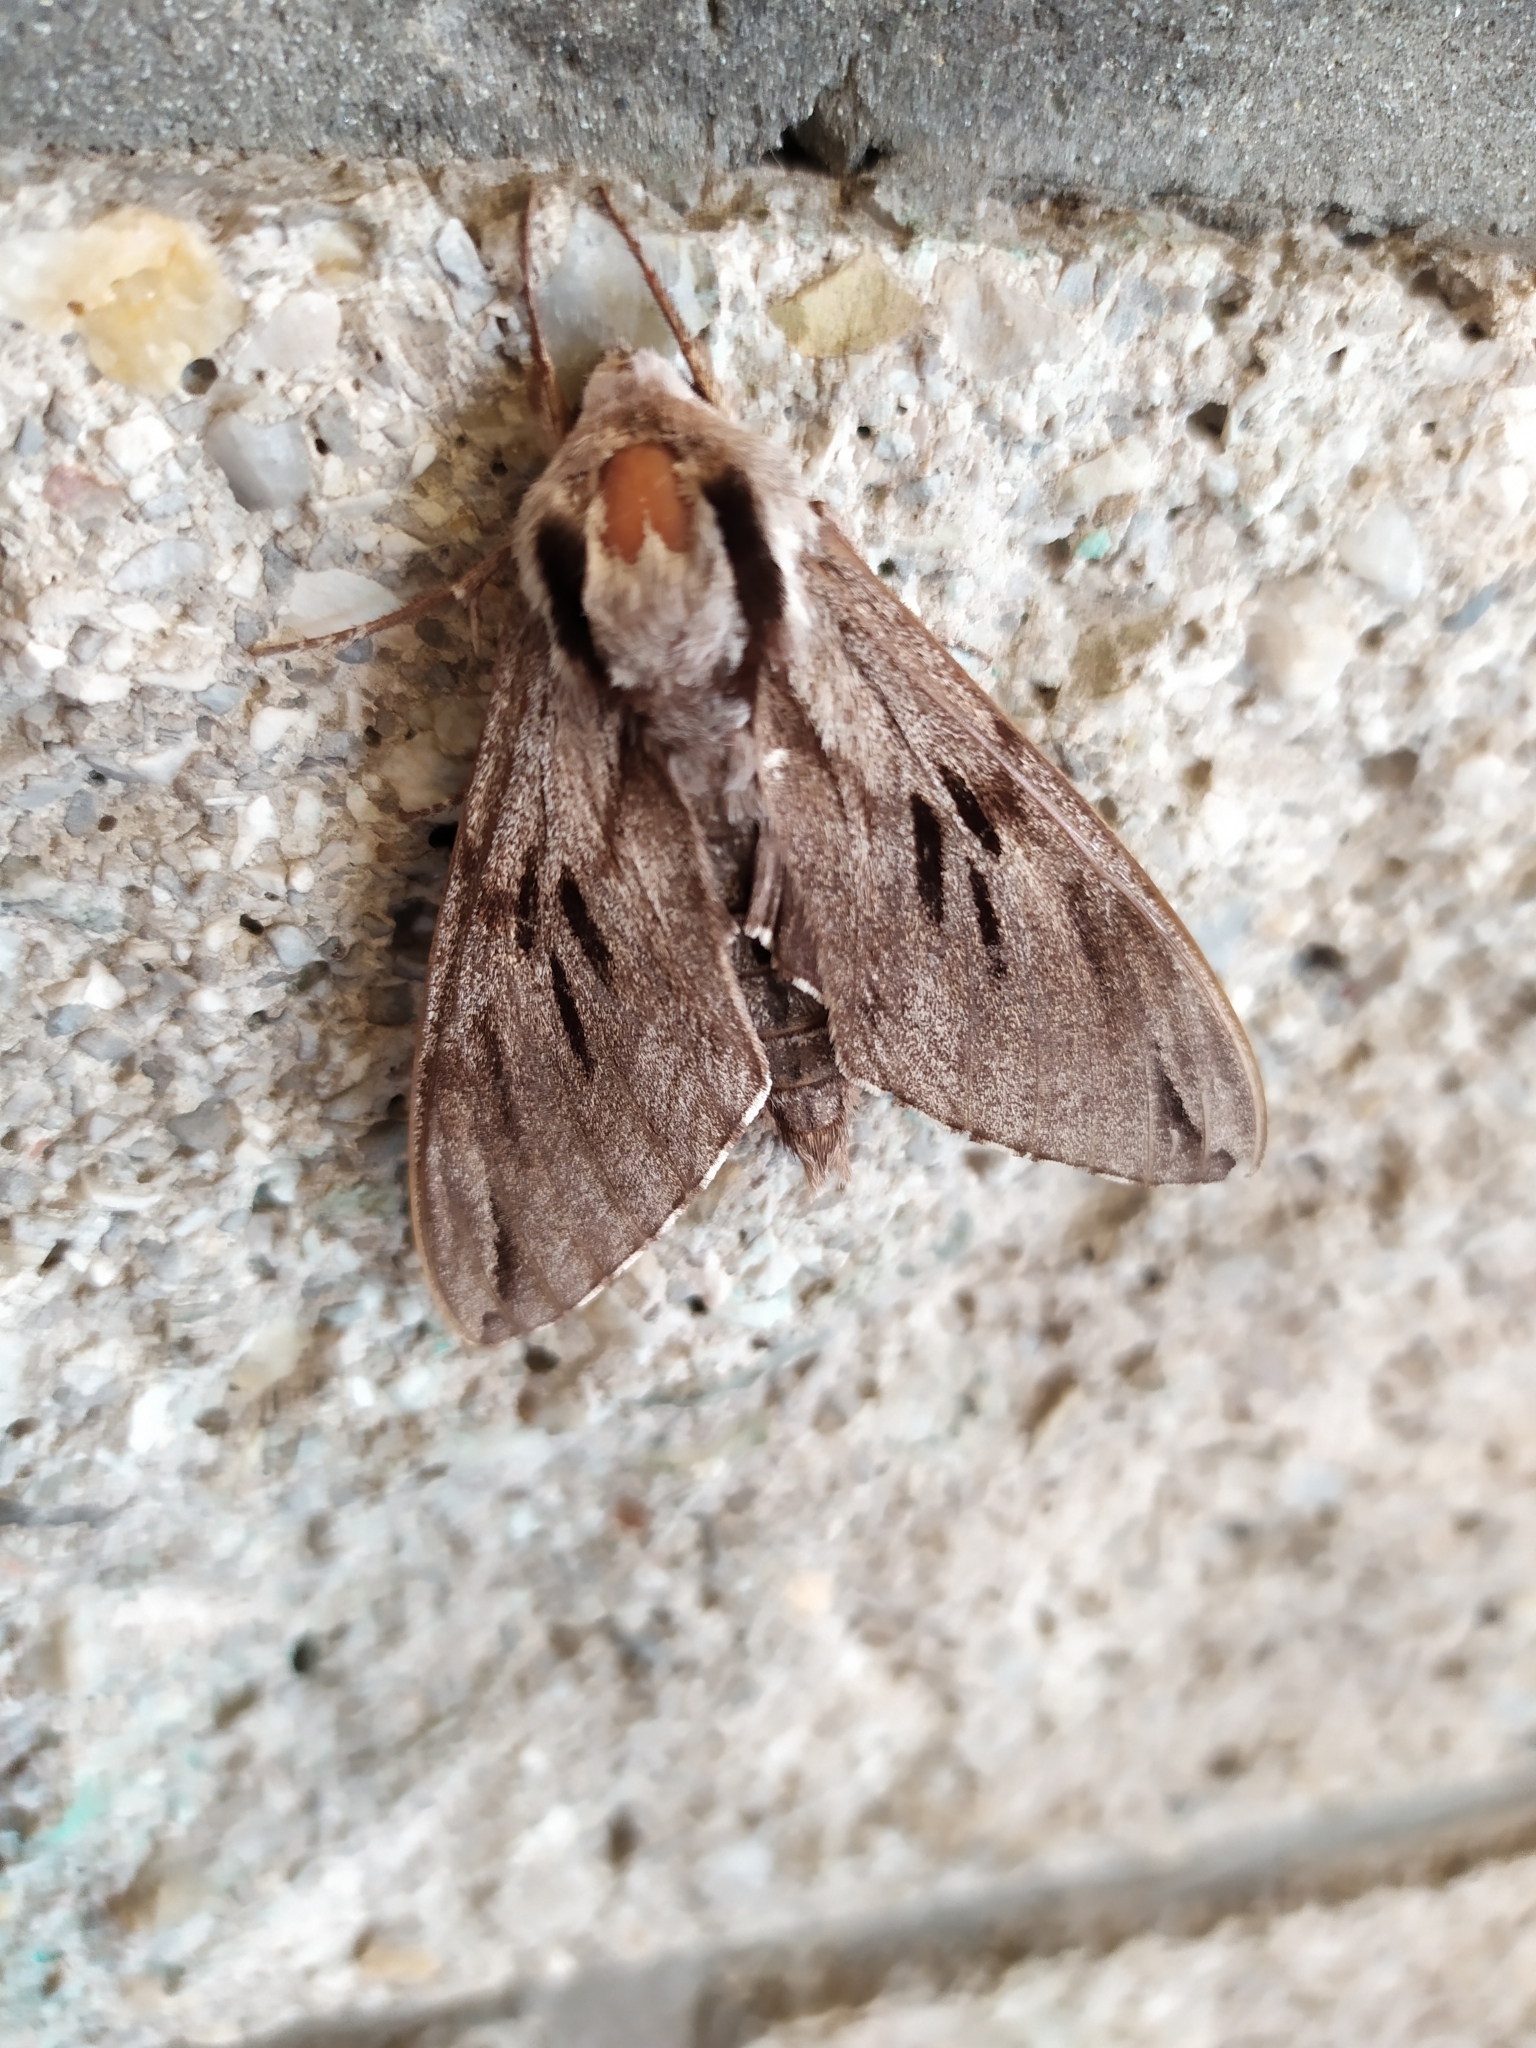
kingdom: Animalia
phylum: Arthropoda
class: Insecta
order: Lepidoptera
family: Sphingidae
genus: Sphinx
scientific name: Sphinx pinastri
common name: Pine hawk-moth
